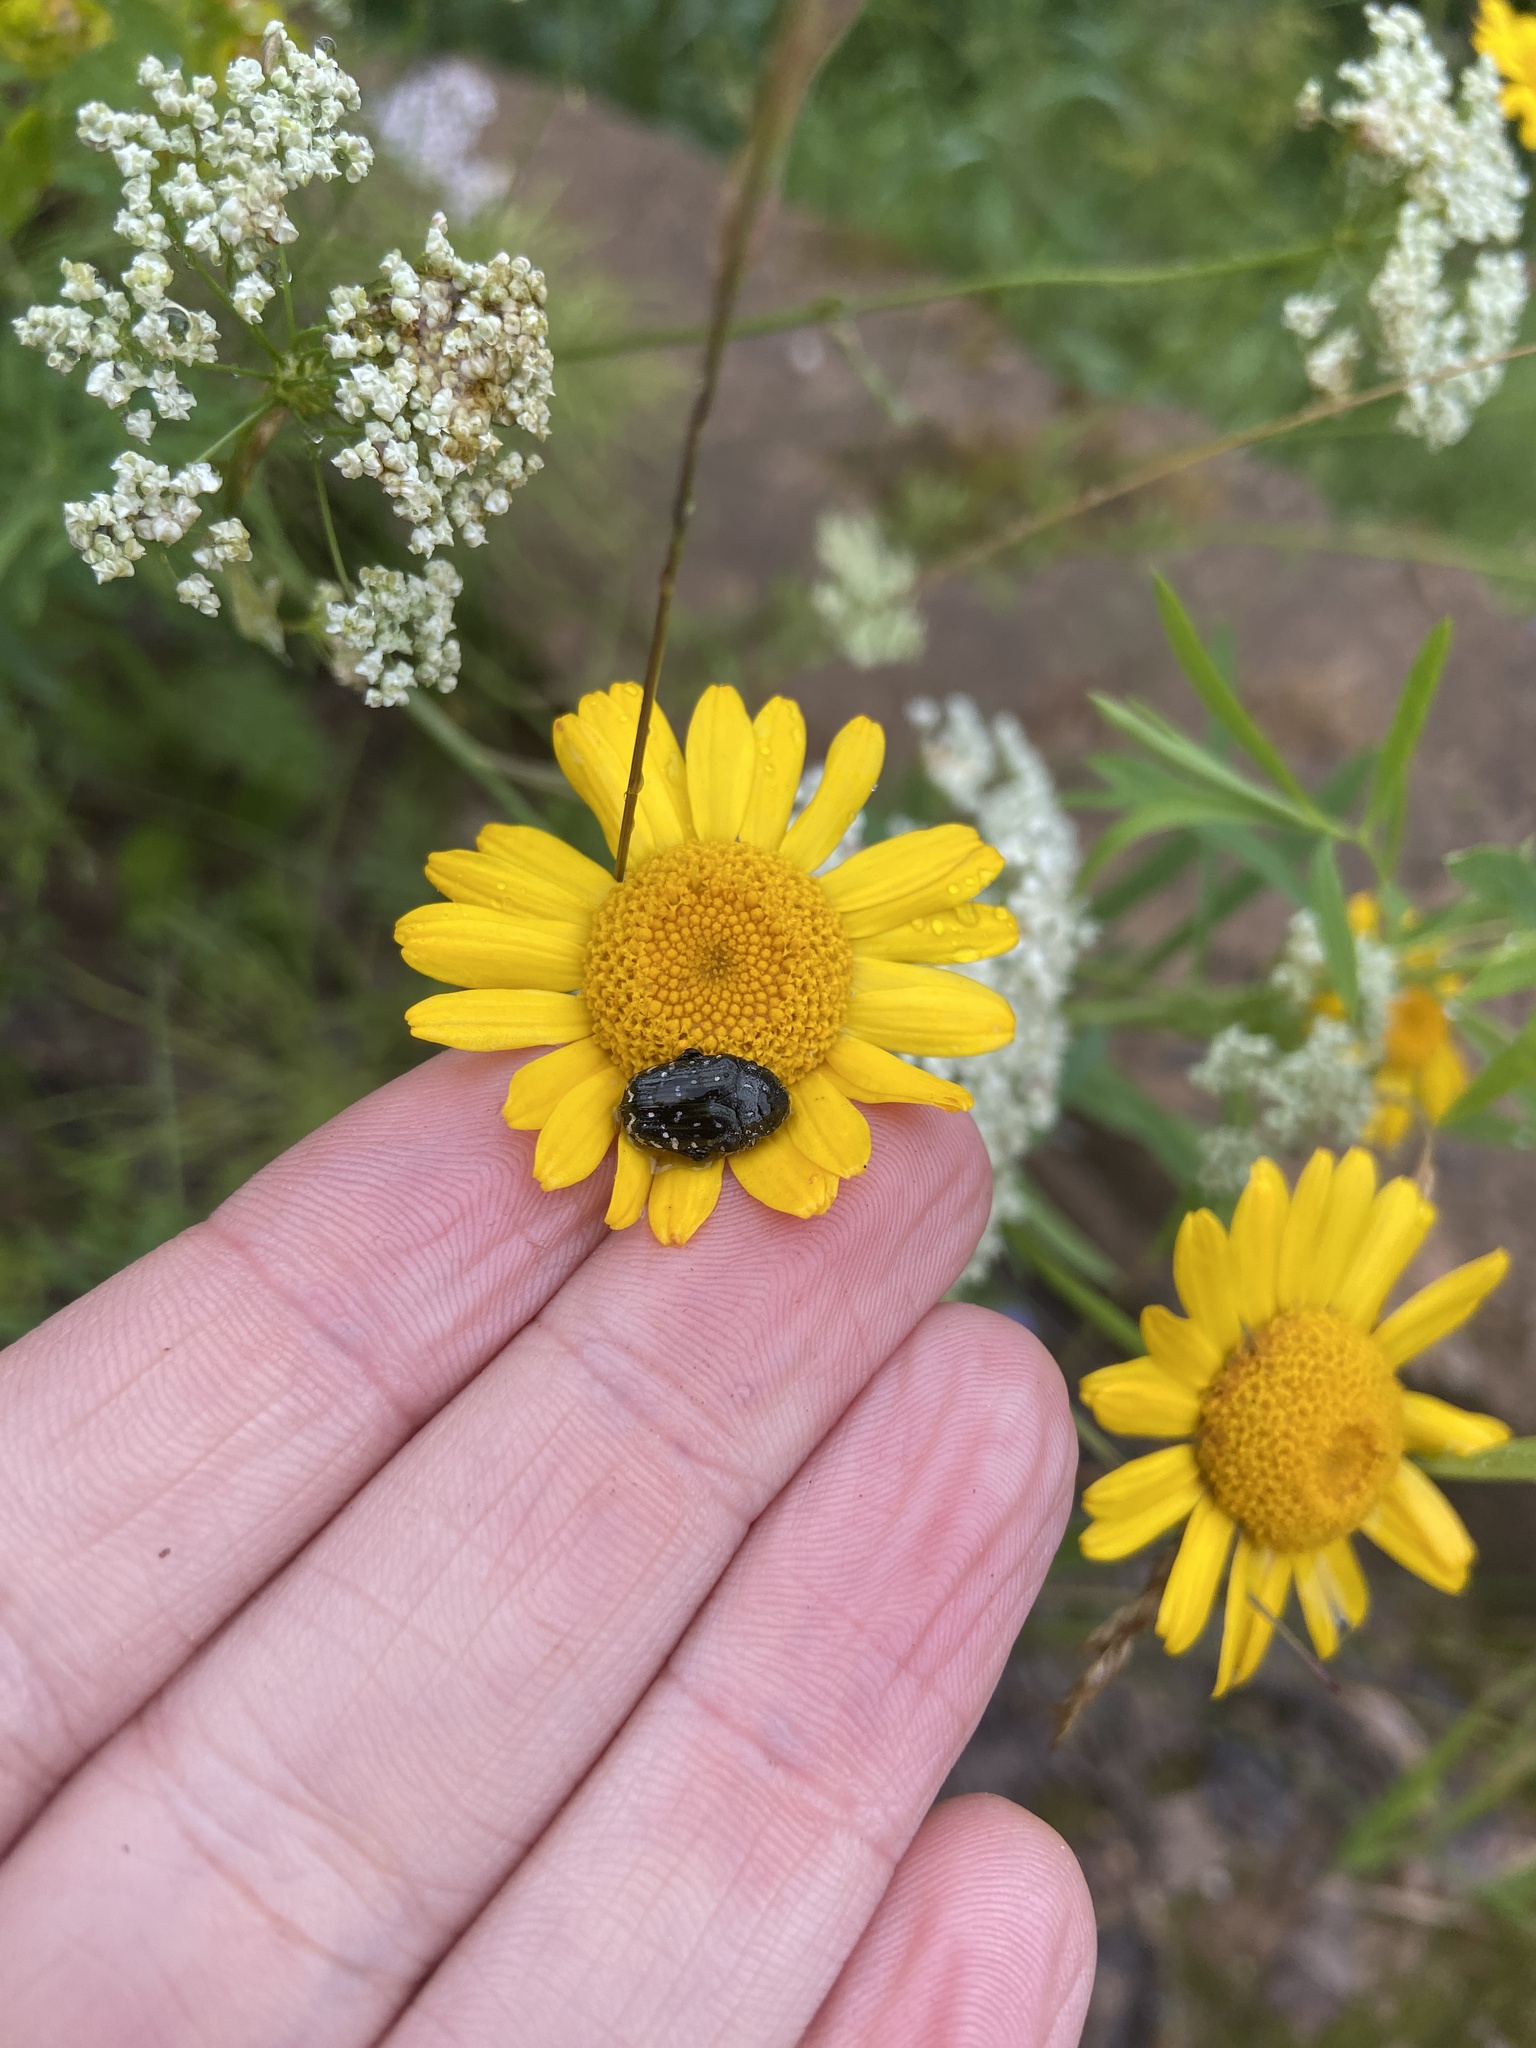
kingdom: Animalia
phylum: Arthropoda
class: Insecta
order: Coleoptera
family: Scarabaeidae
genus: Oxythyrea
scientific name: Oxythyrea funesta
